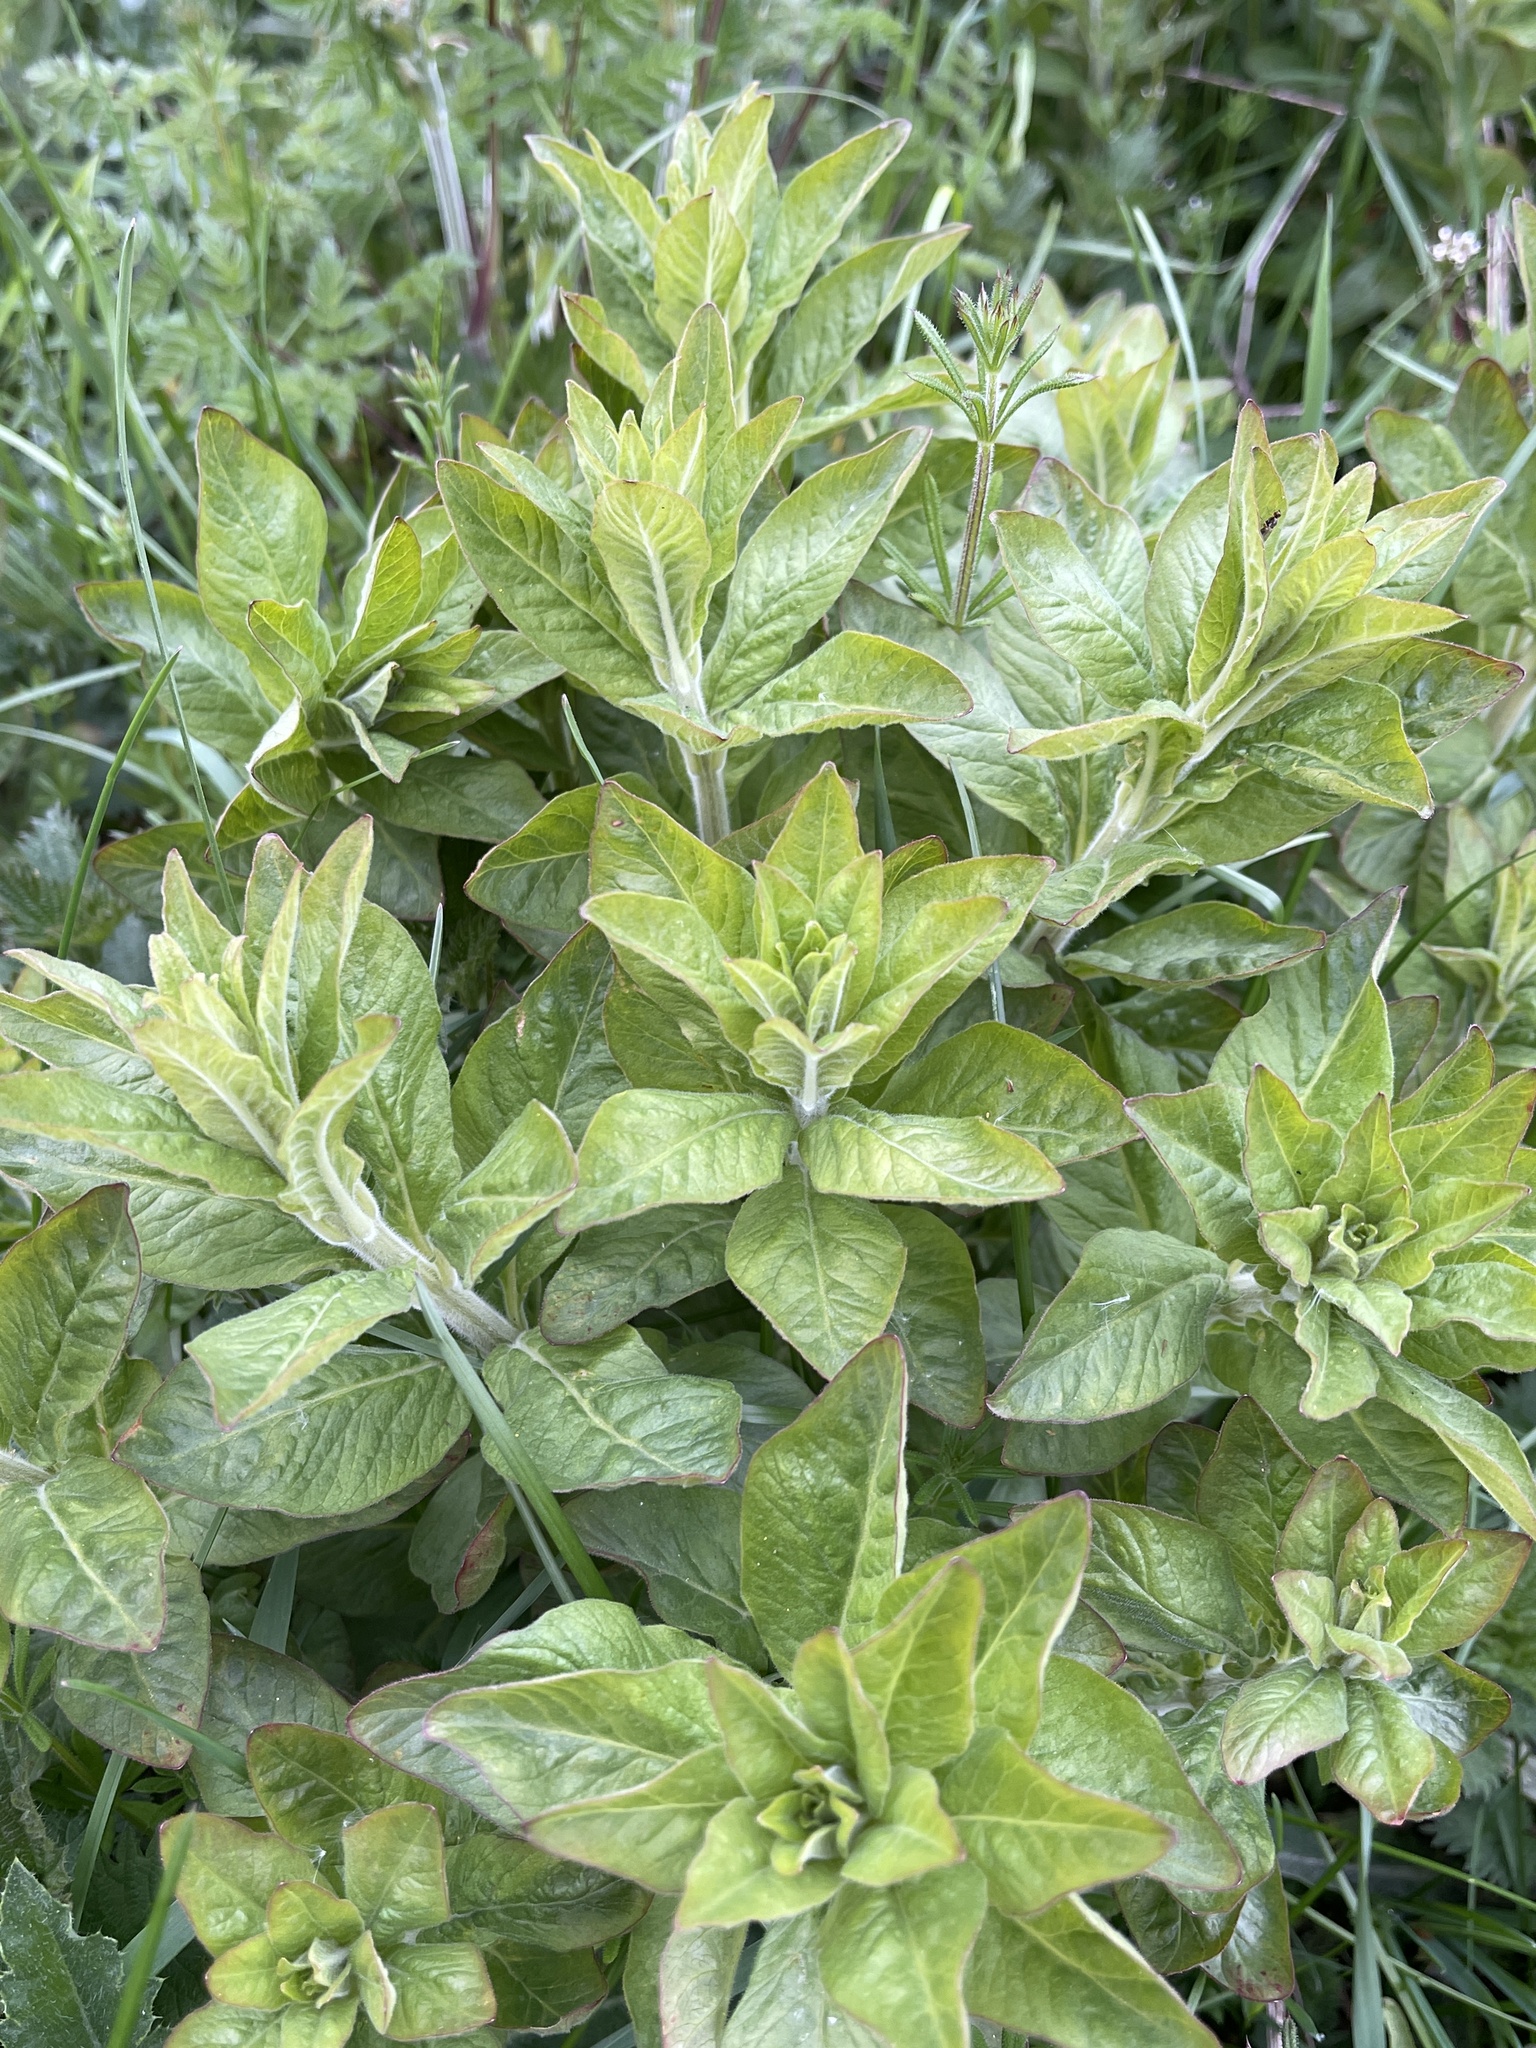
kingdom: Plantae
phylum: Tracheophyta
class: Magnoliopsida
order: Ericales
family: Primulaceae
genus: Lysimachia
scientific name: Lysimachia punctata
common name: Dotted loosestrife
